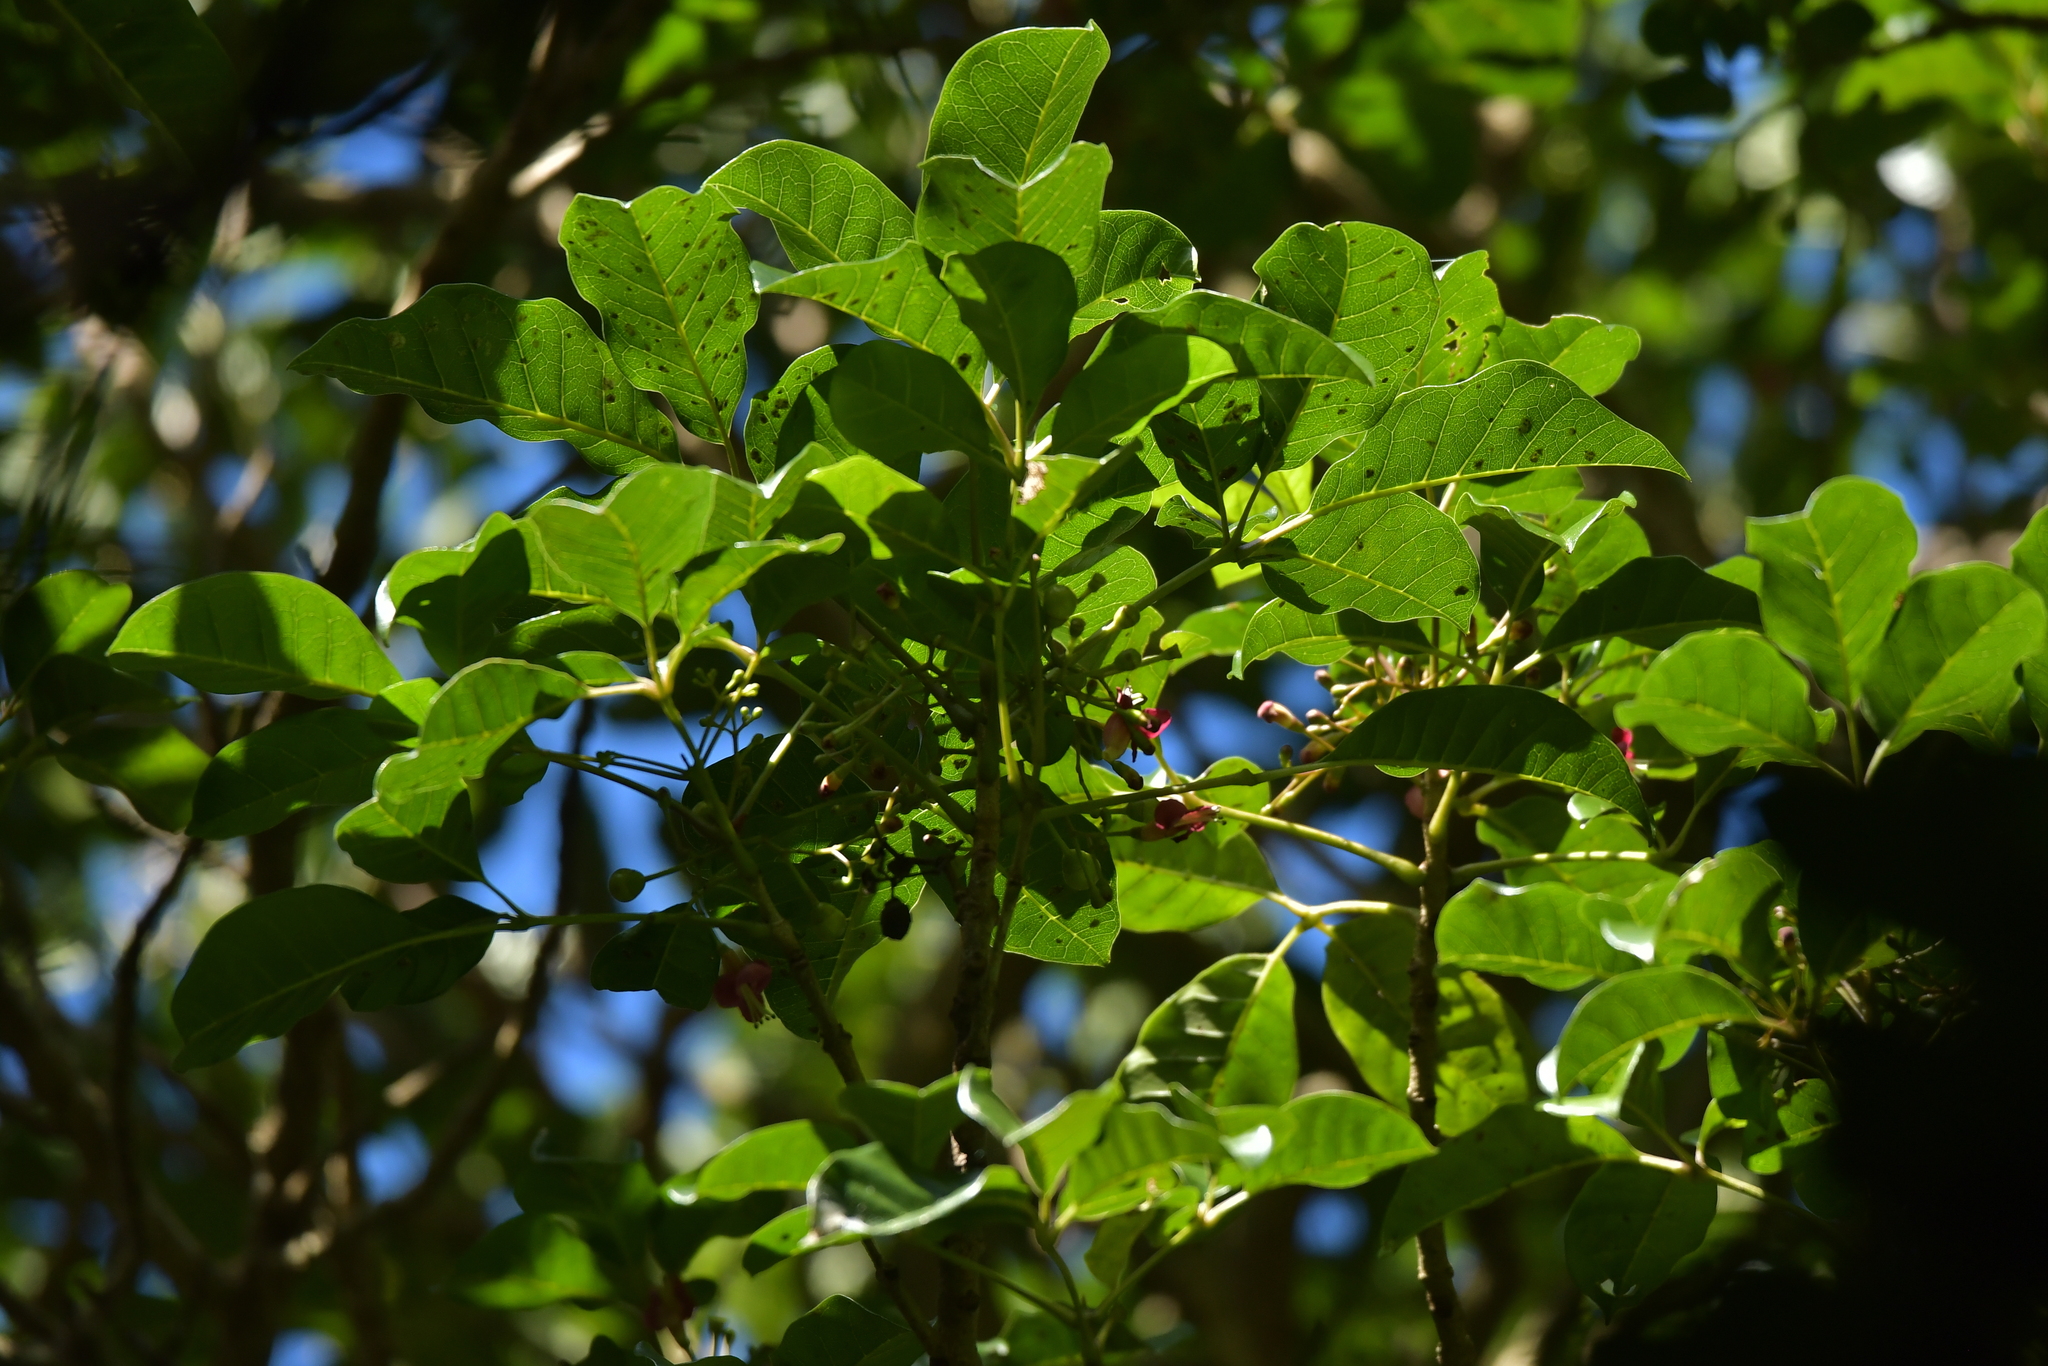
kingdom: Plantae
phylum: Tracheophyta
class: Magnoliopsida
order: Lamiales
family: Lamiaceae
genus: Vitex
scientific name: Vitex lucens
